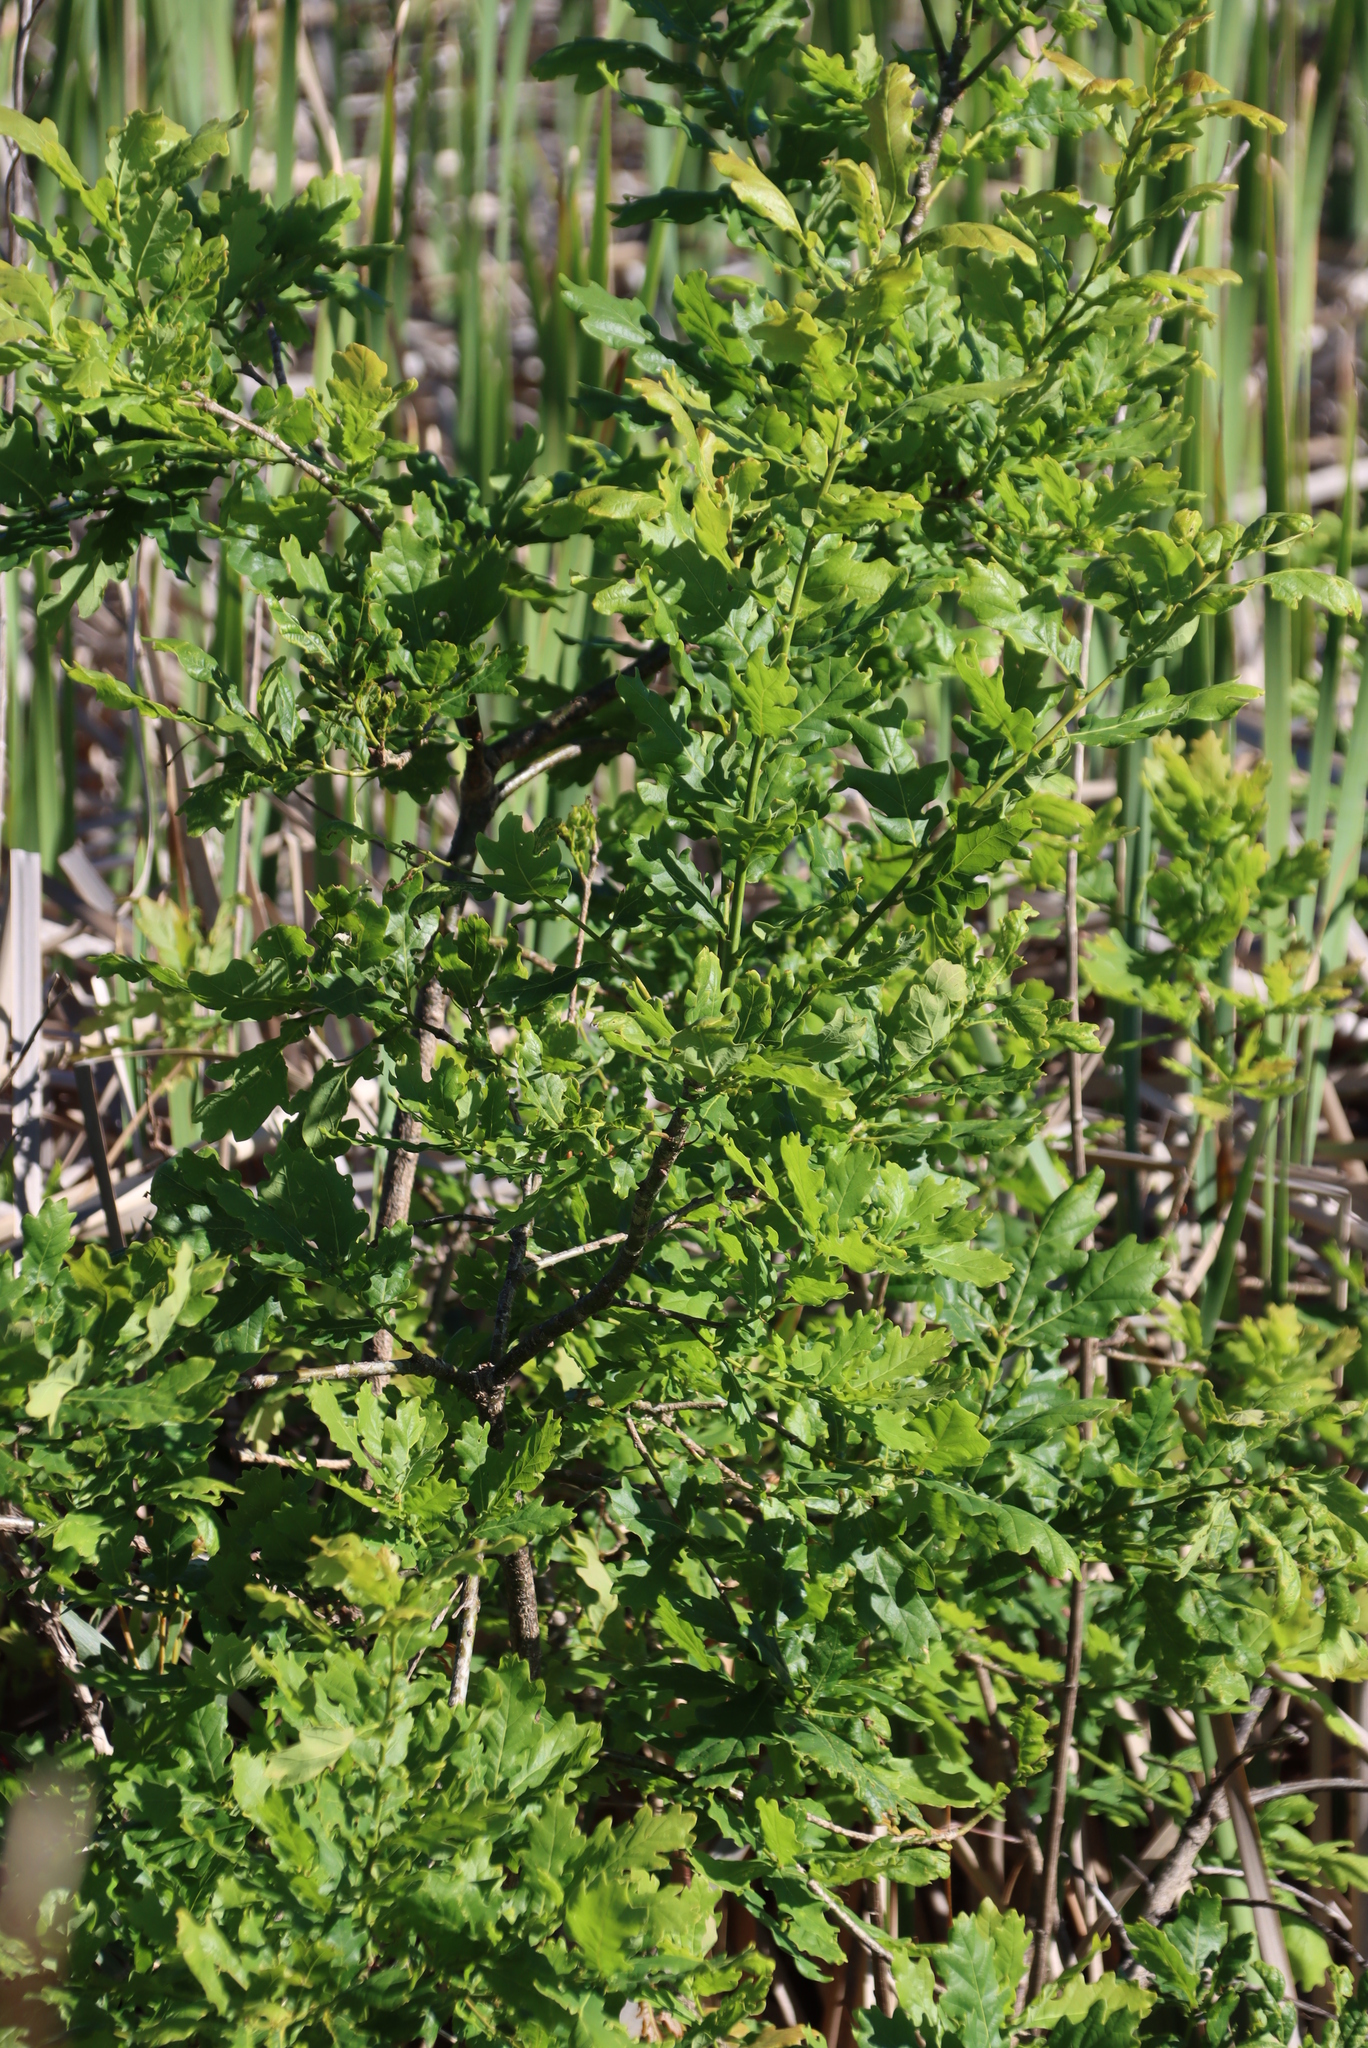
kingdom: Plantae
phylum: Tracheophyta
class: Magnoliopsida
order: Fagales
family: Fagaceae
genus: Quercus
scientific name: Quercus robur
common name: Pedunculate oak
